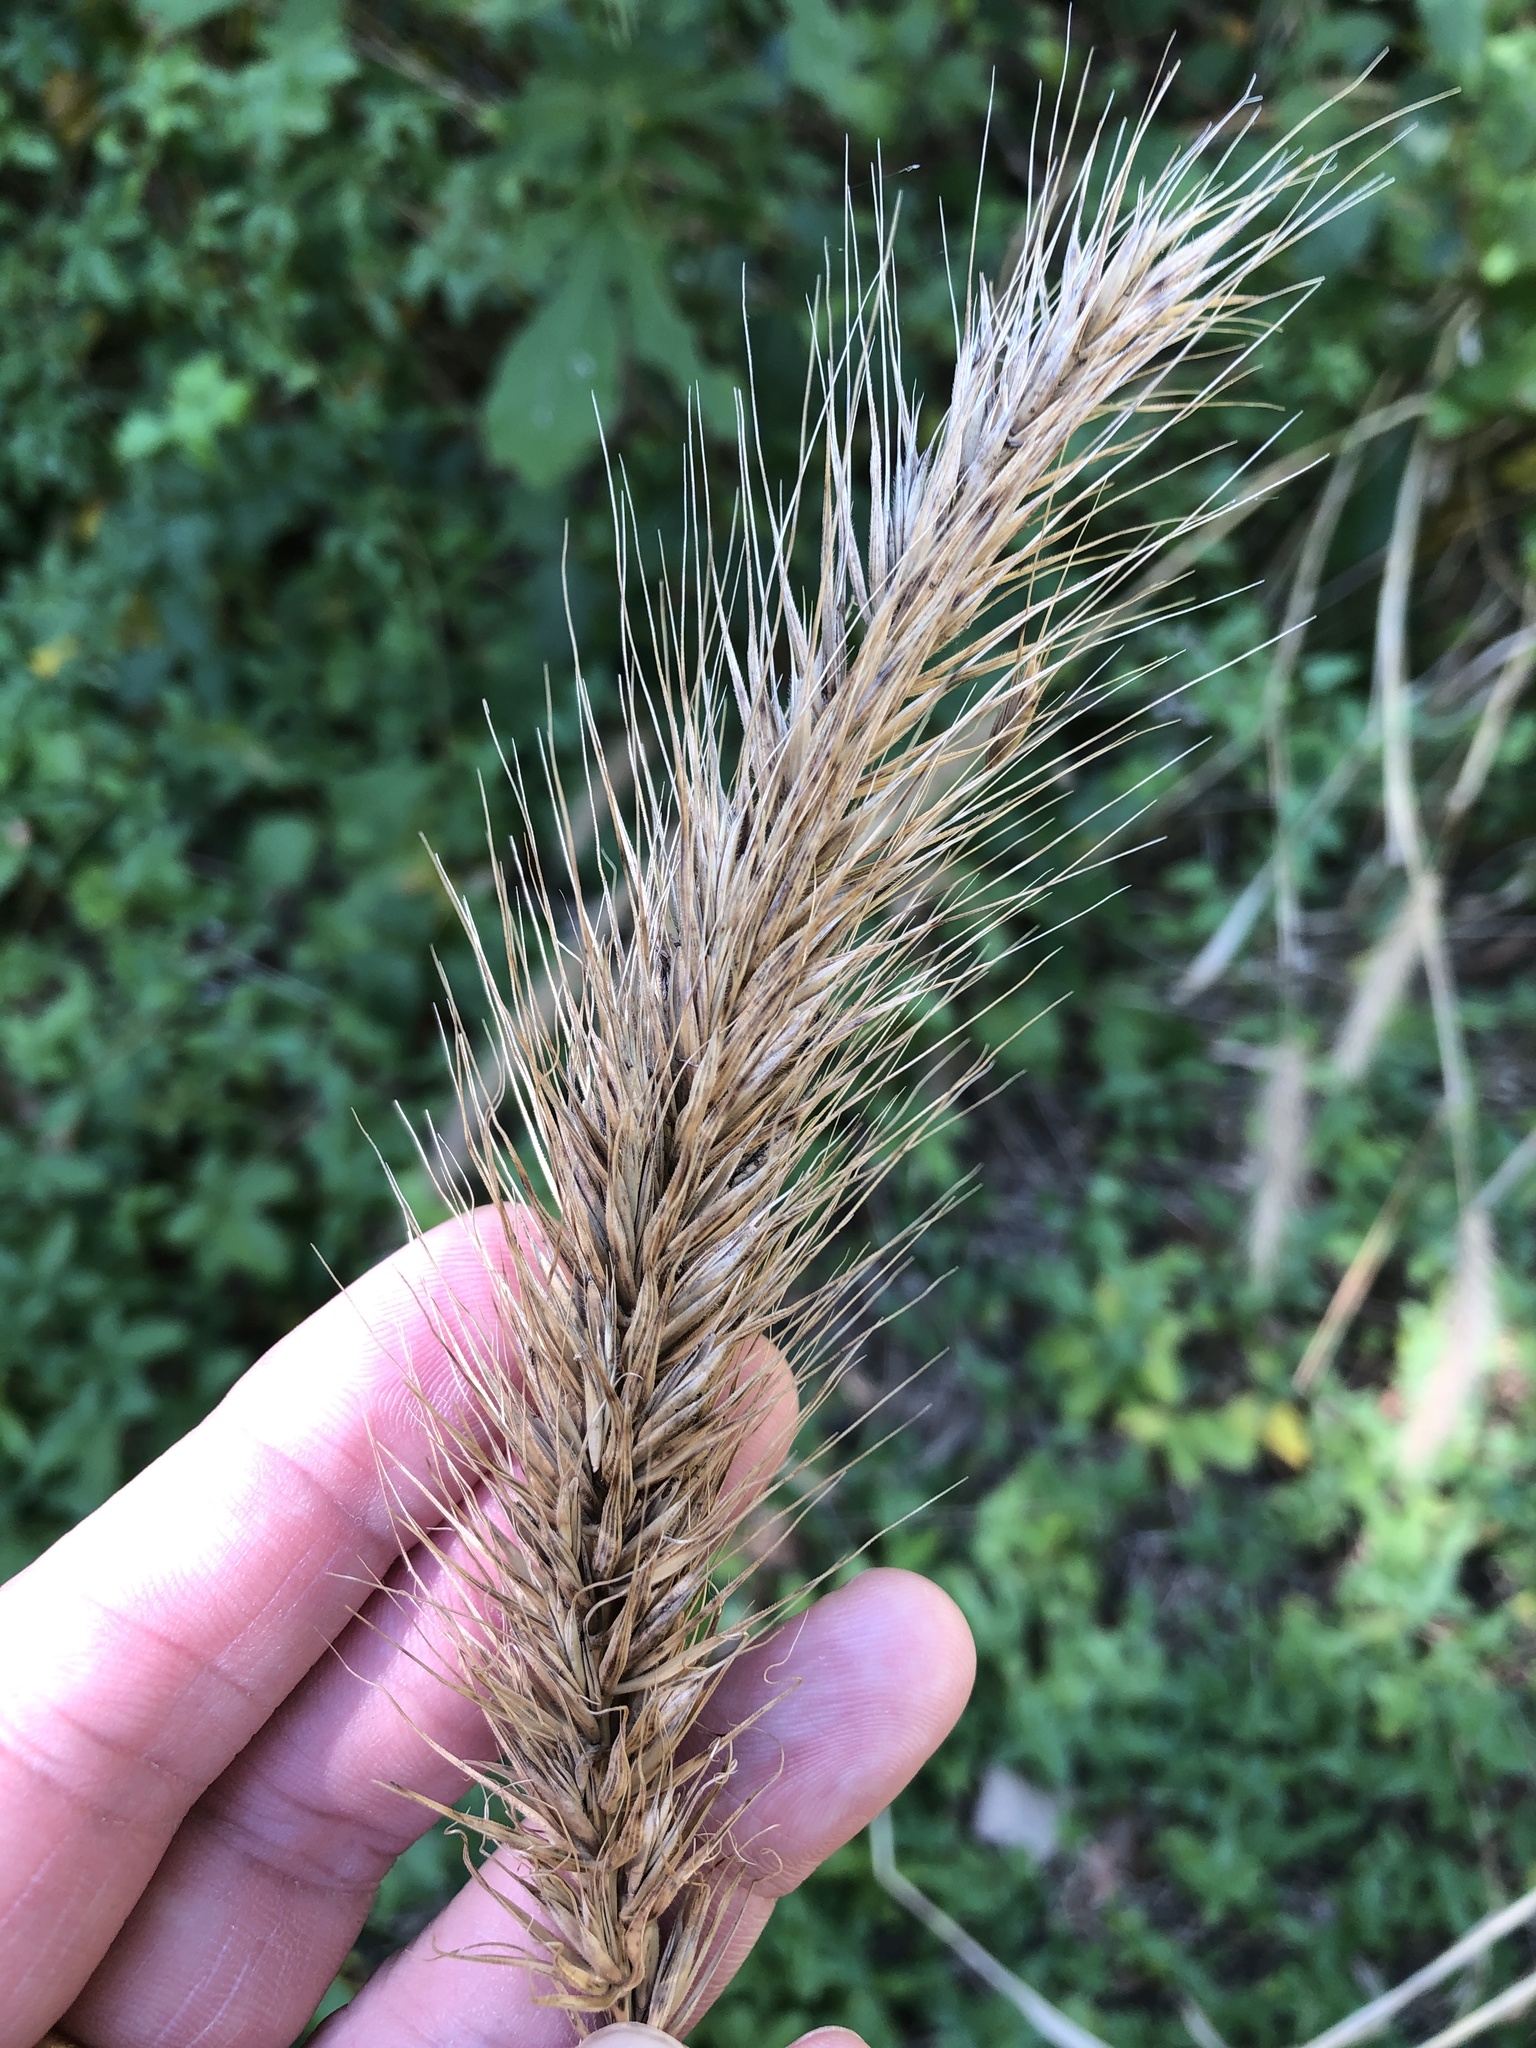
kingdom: Plantae
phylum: Tracheophyta
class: Liliopsida
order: Poales
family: Poaceae
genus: Elymus
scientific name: Elymus virginicus
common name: Common eastern wildrye
